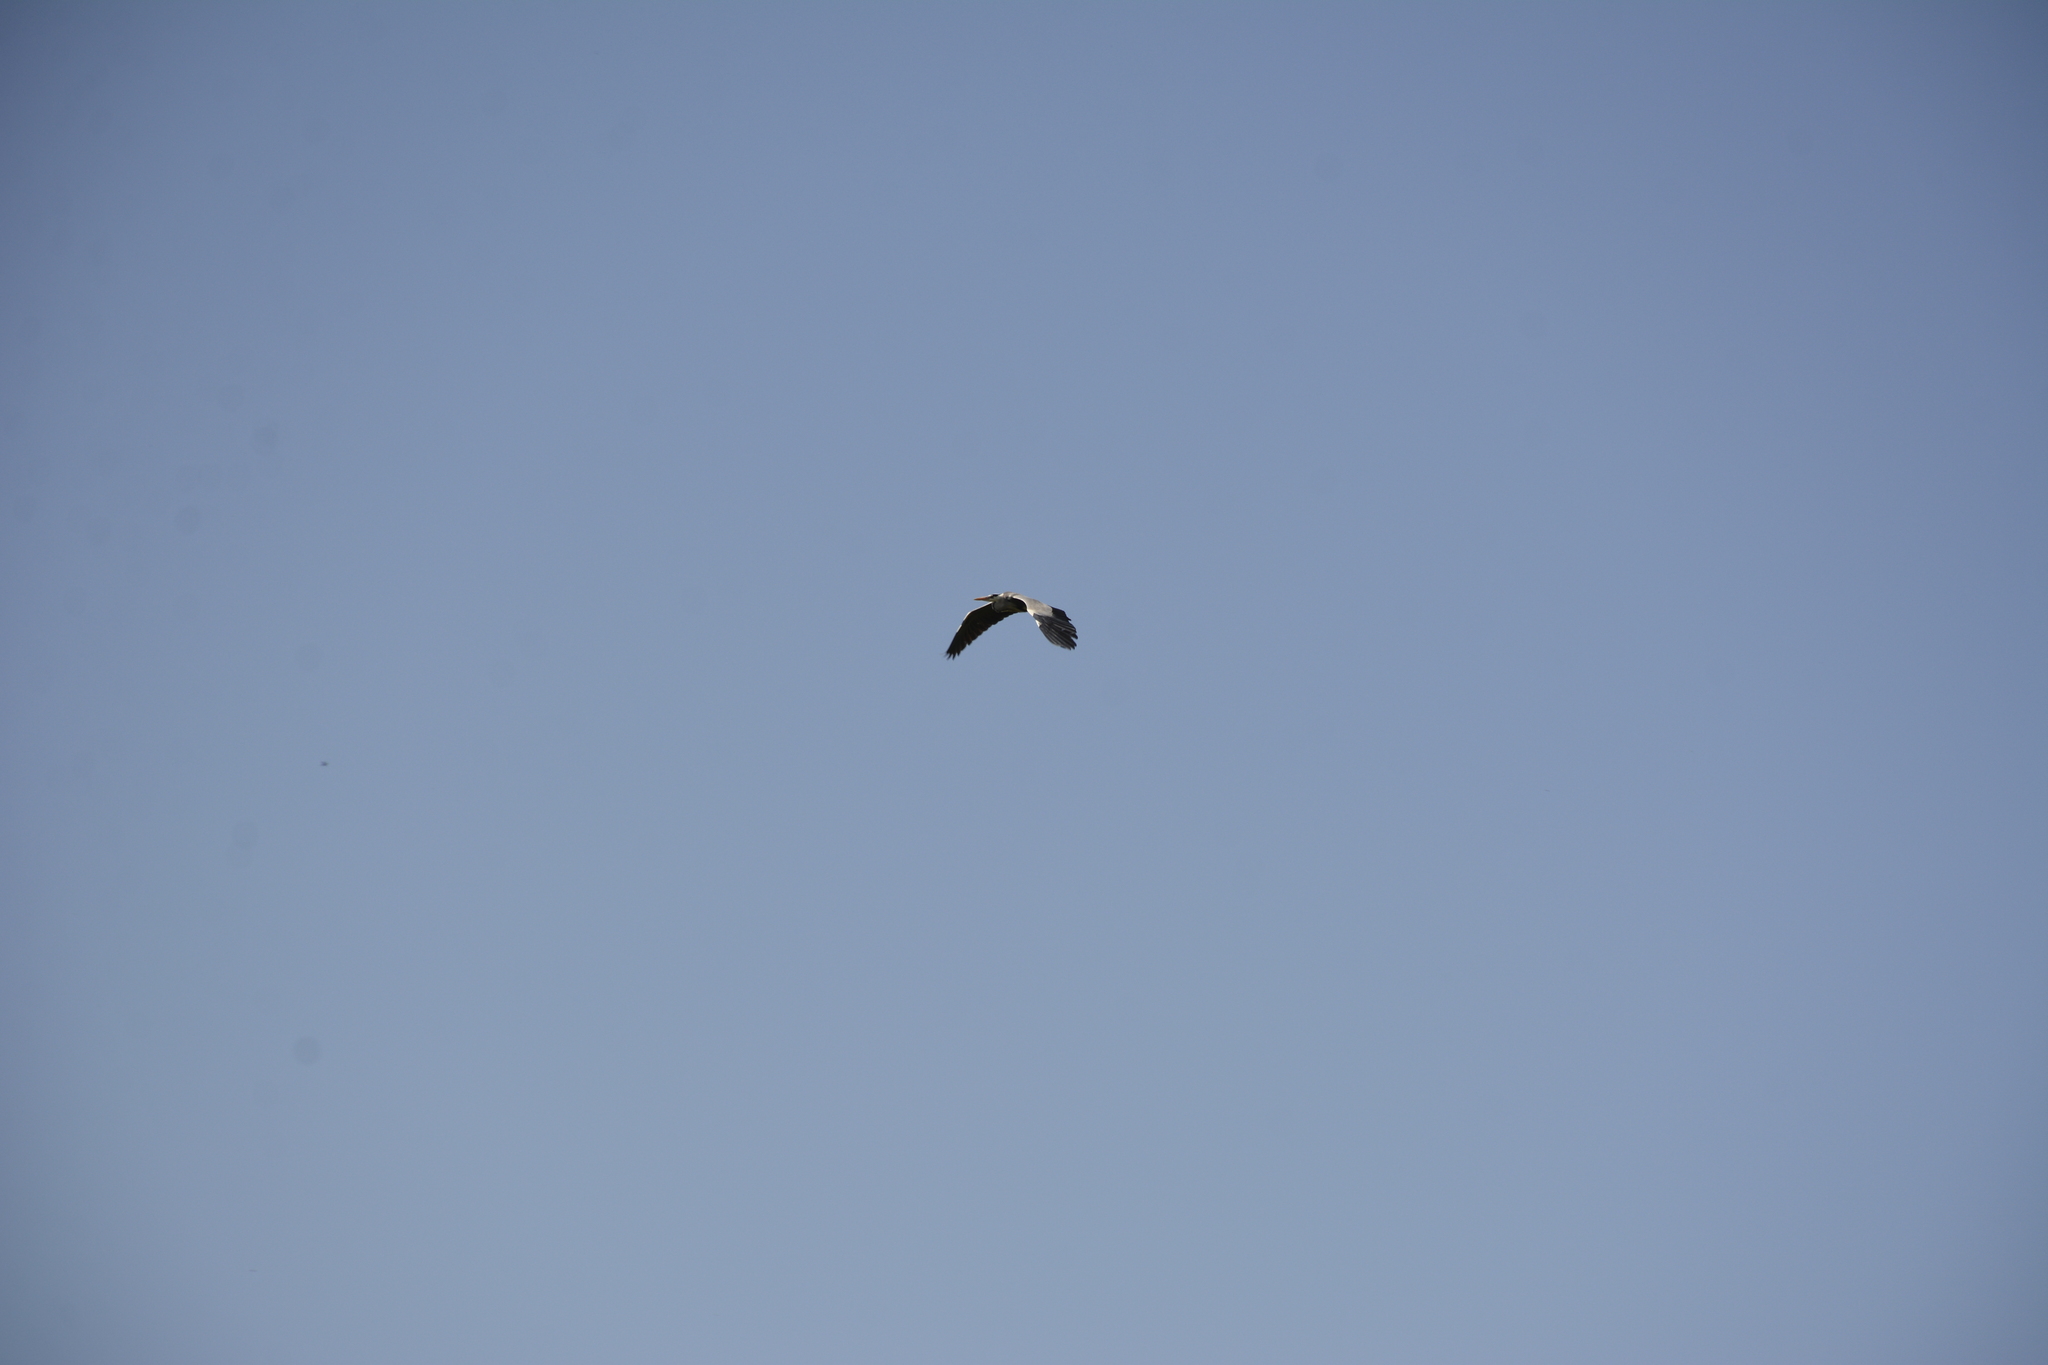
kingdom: Animalia
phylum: Chordata
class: Aves
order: Pelecaniformes
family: Ardeidae
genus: Ardea
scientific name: Ardea cinerea
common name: Grey heron
